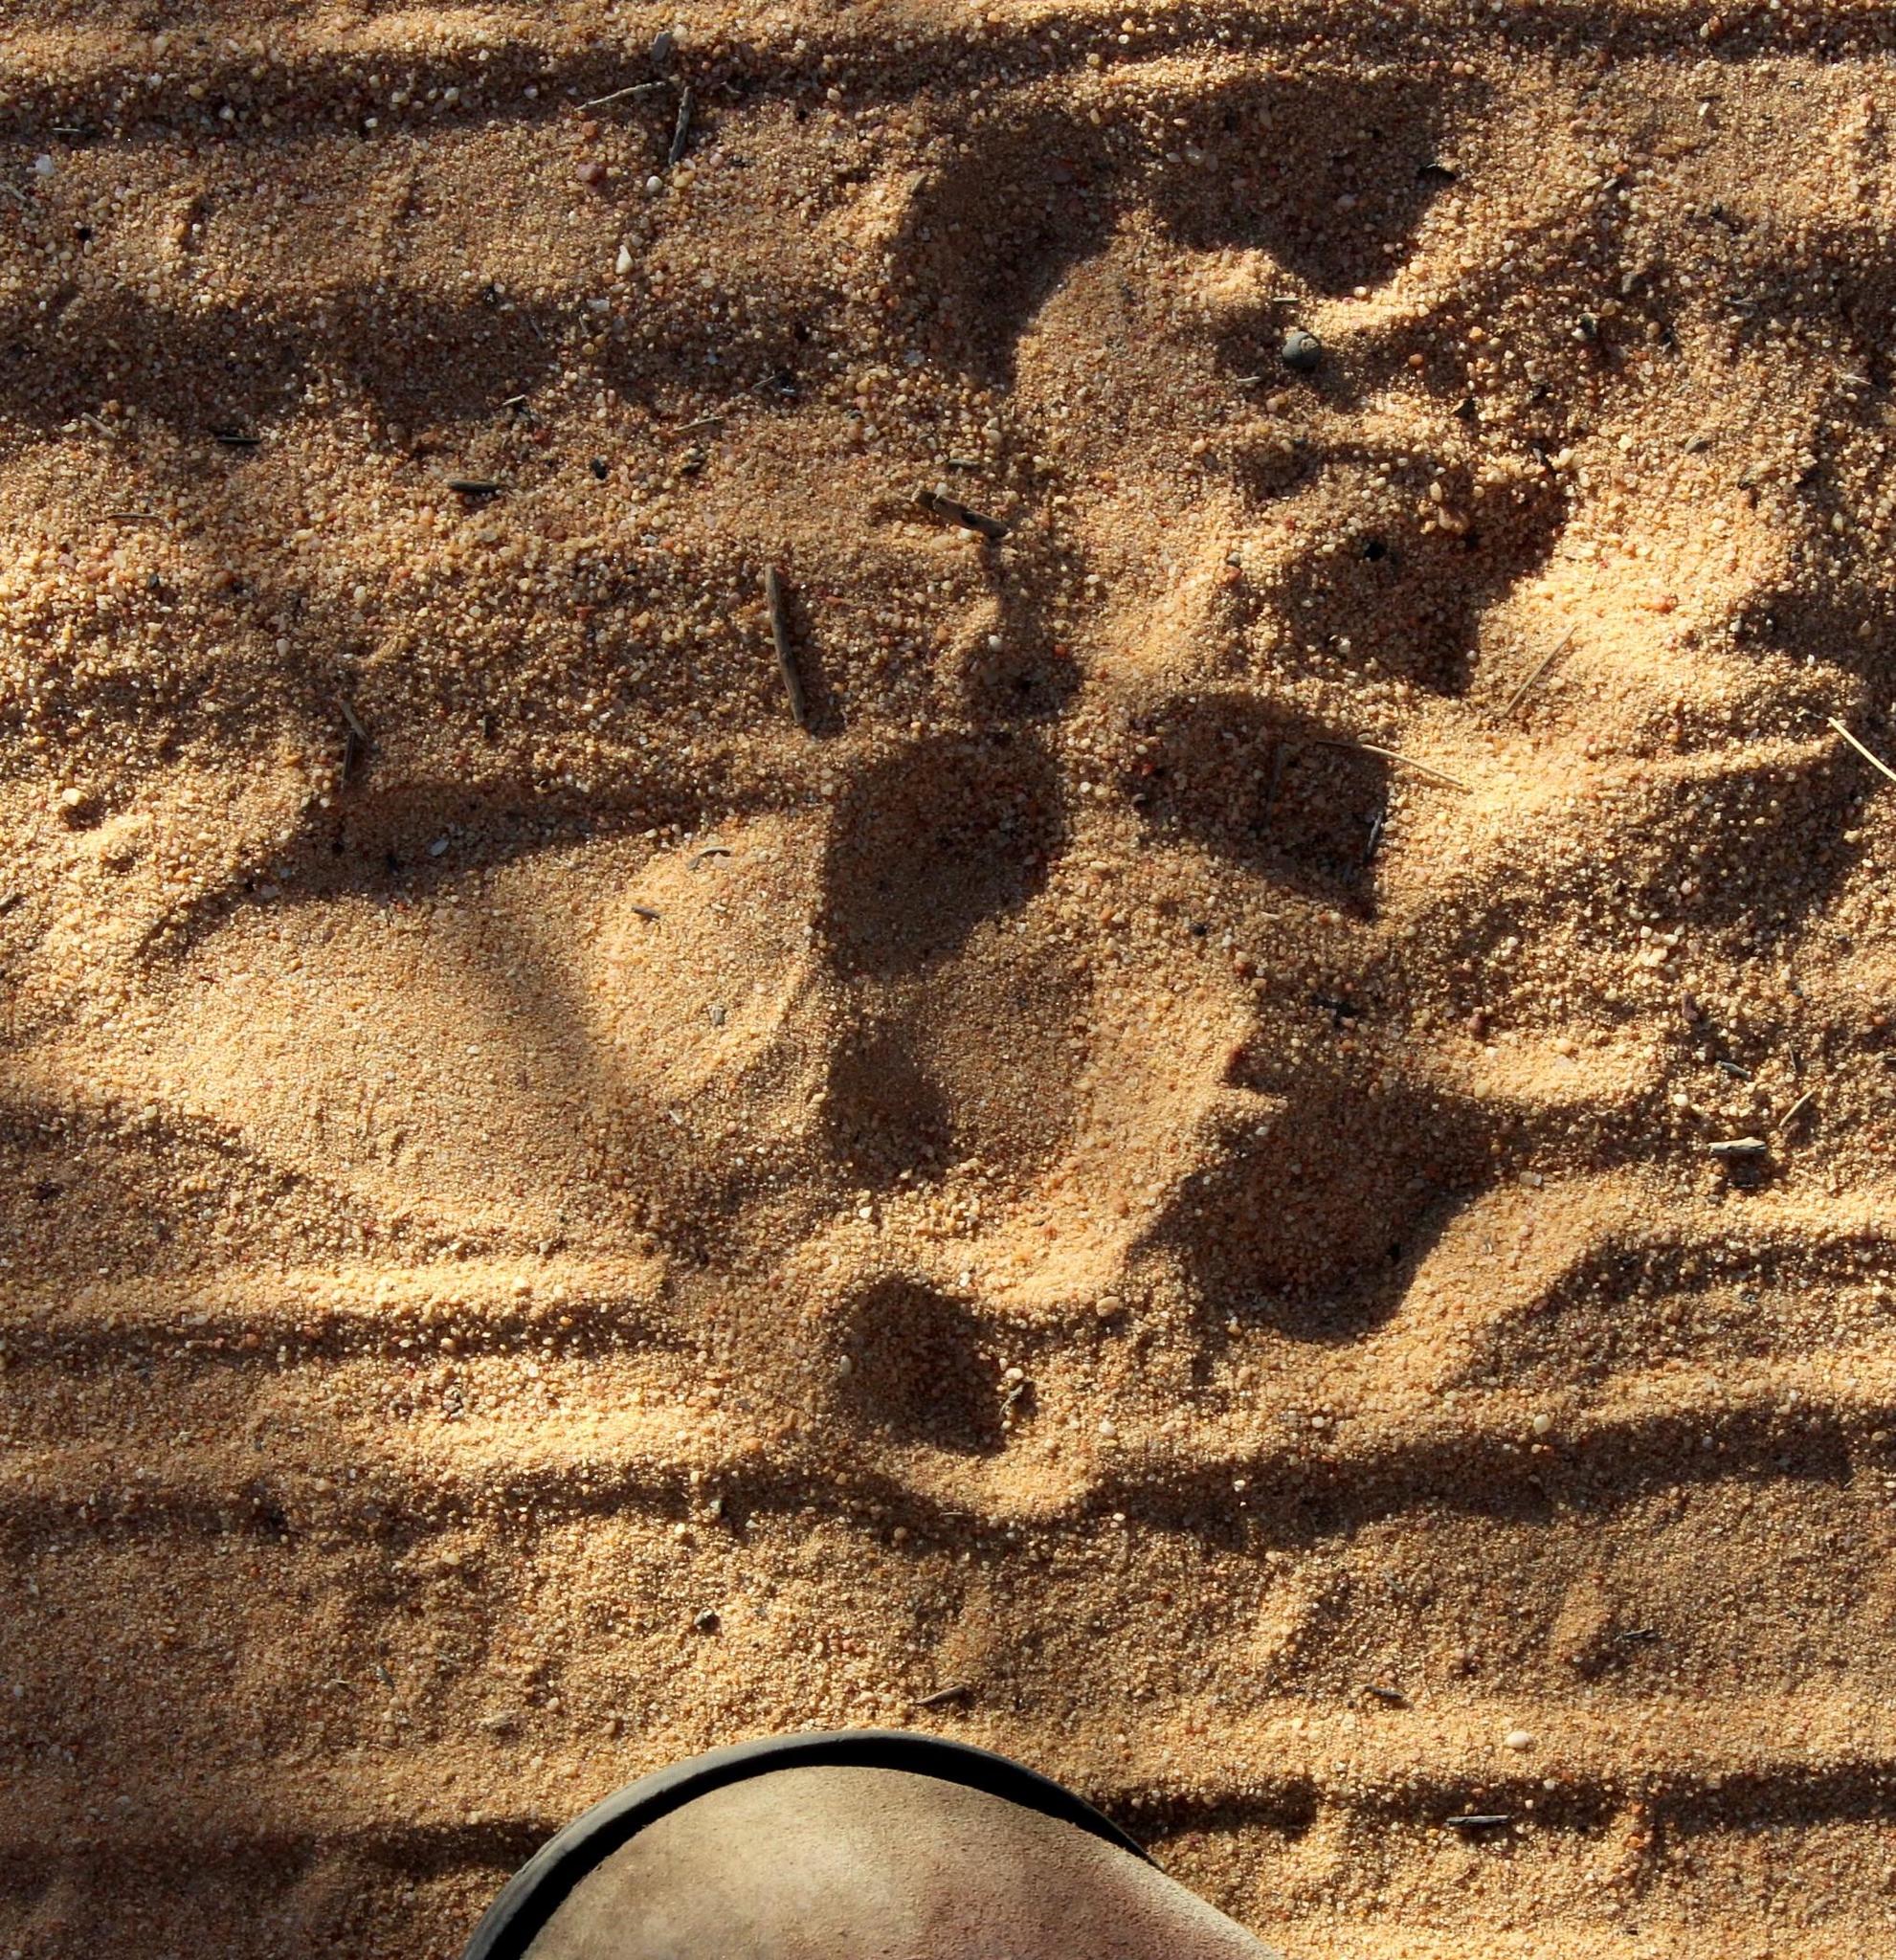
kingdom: Animalia
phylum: Chordata
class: Mammalia
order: Primates
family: Cercopithecidae
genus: Papio
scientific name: Papio ursinus
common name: Chacma baboon
